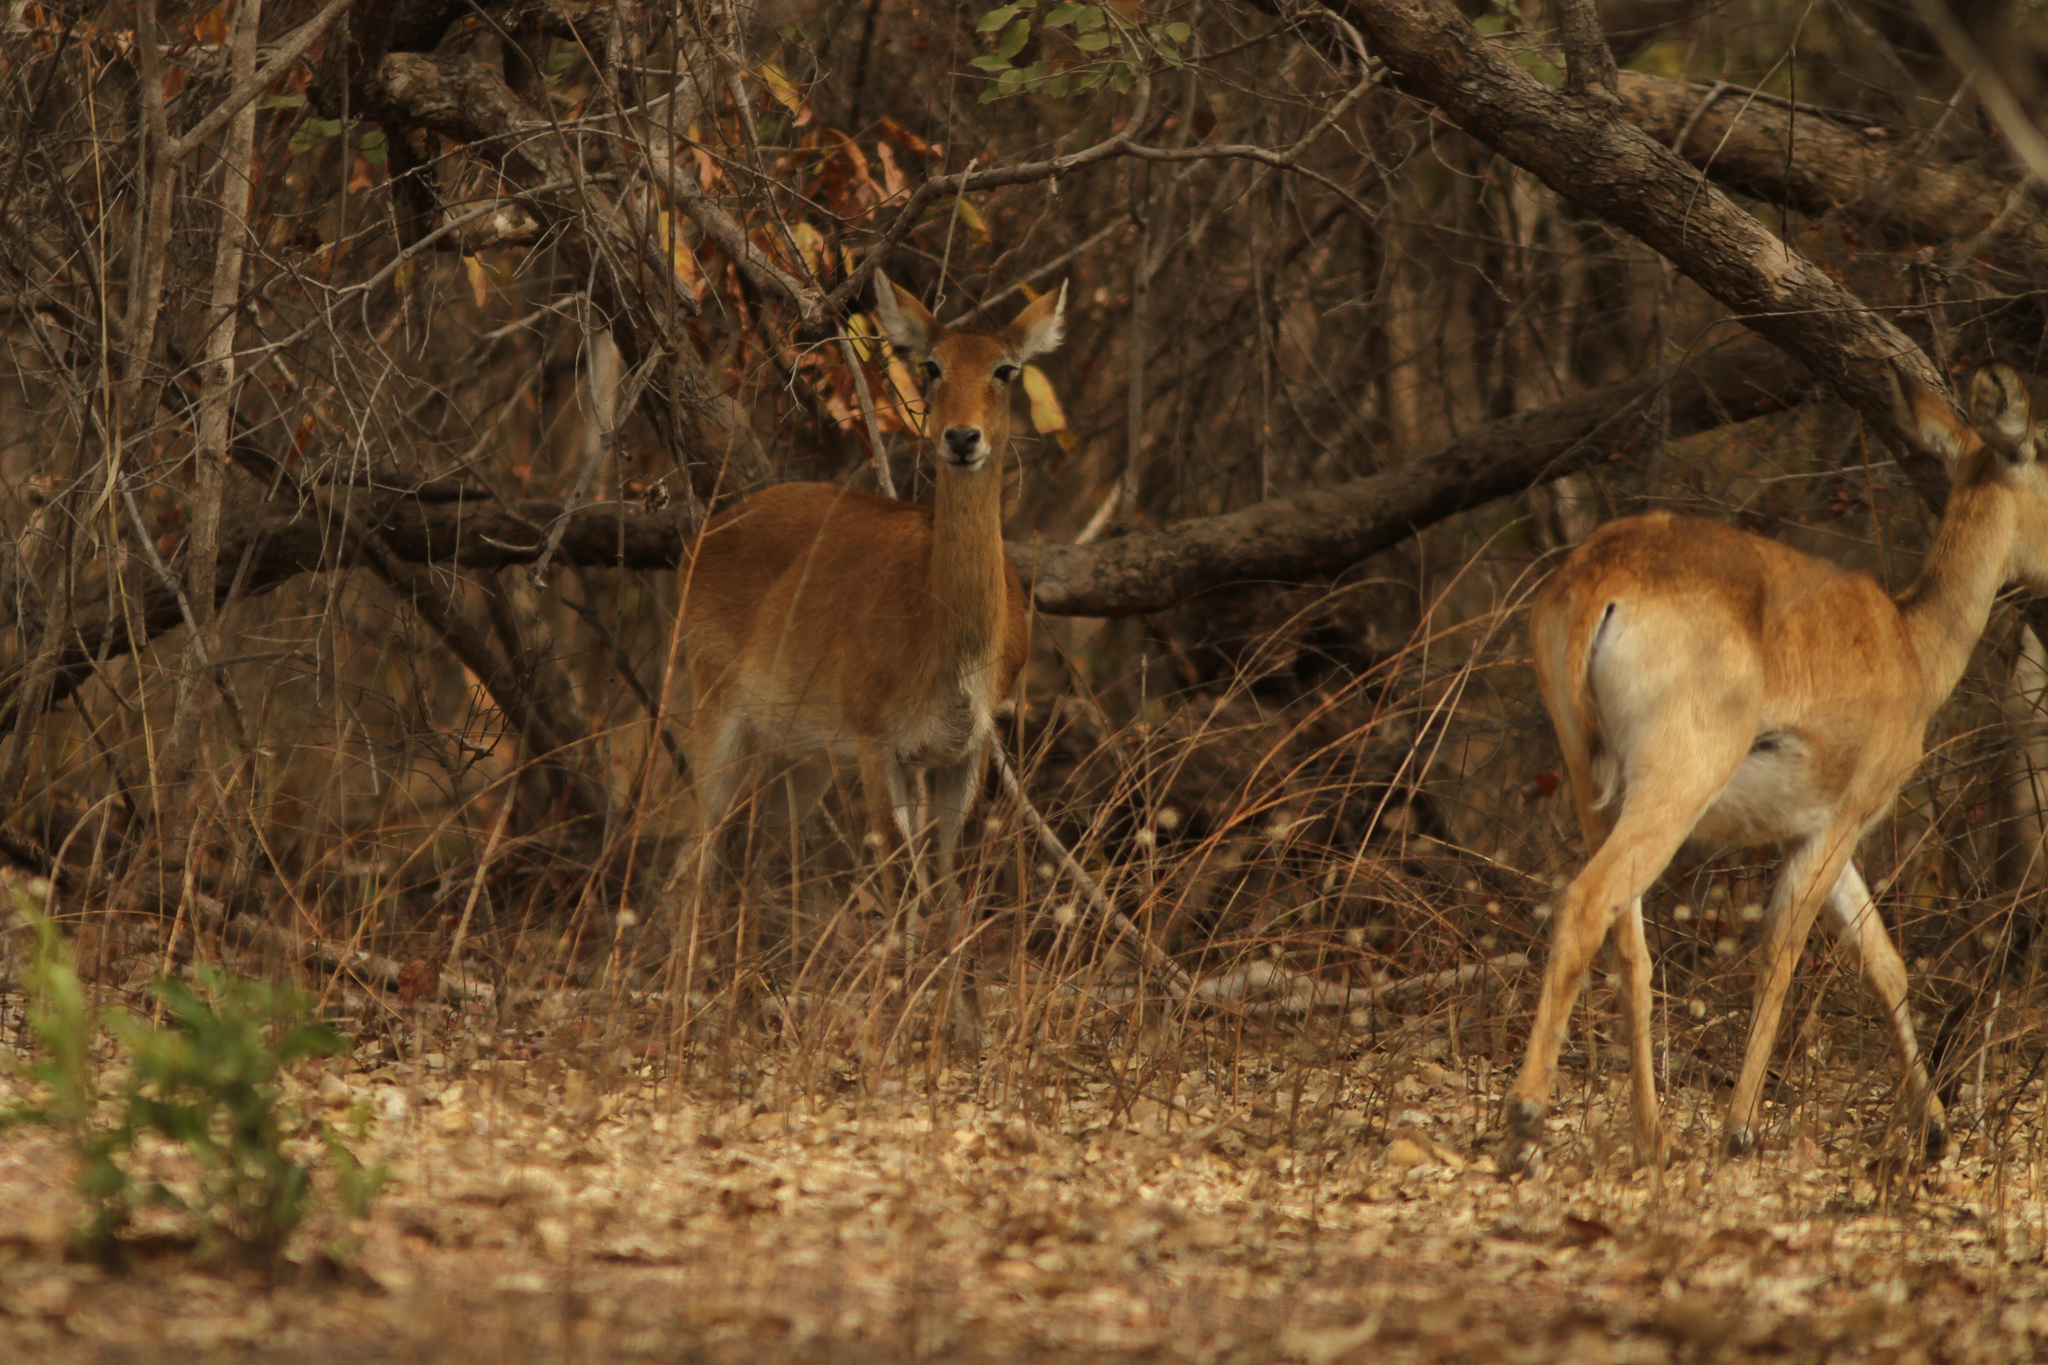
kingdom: Animalia
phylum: Chordata
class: Mammalia
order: Artiodactyla
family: Bovidae
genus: Kobus
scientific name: Kobus kob
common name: Kob
